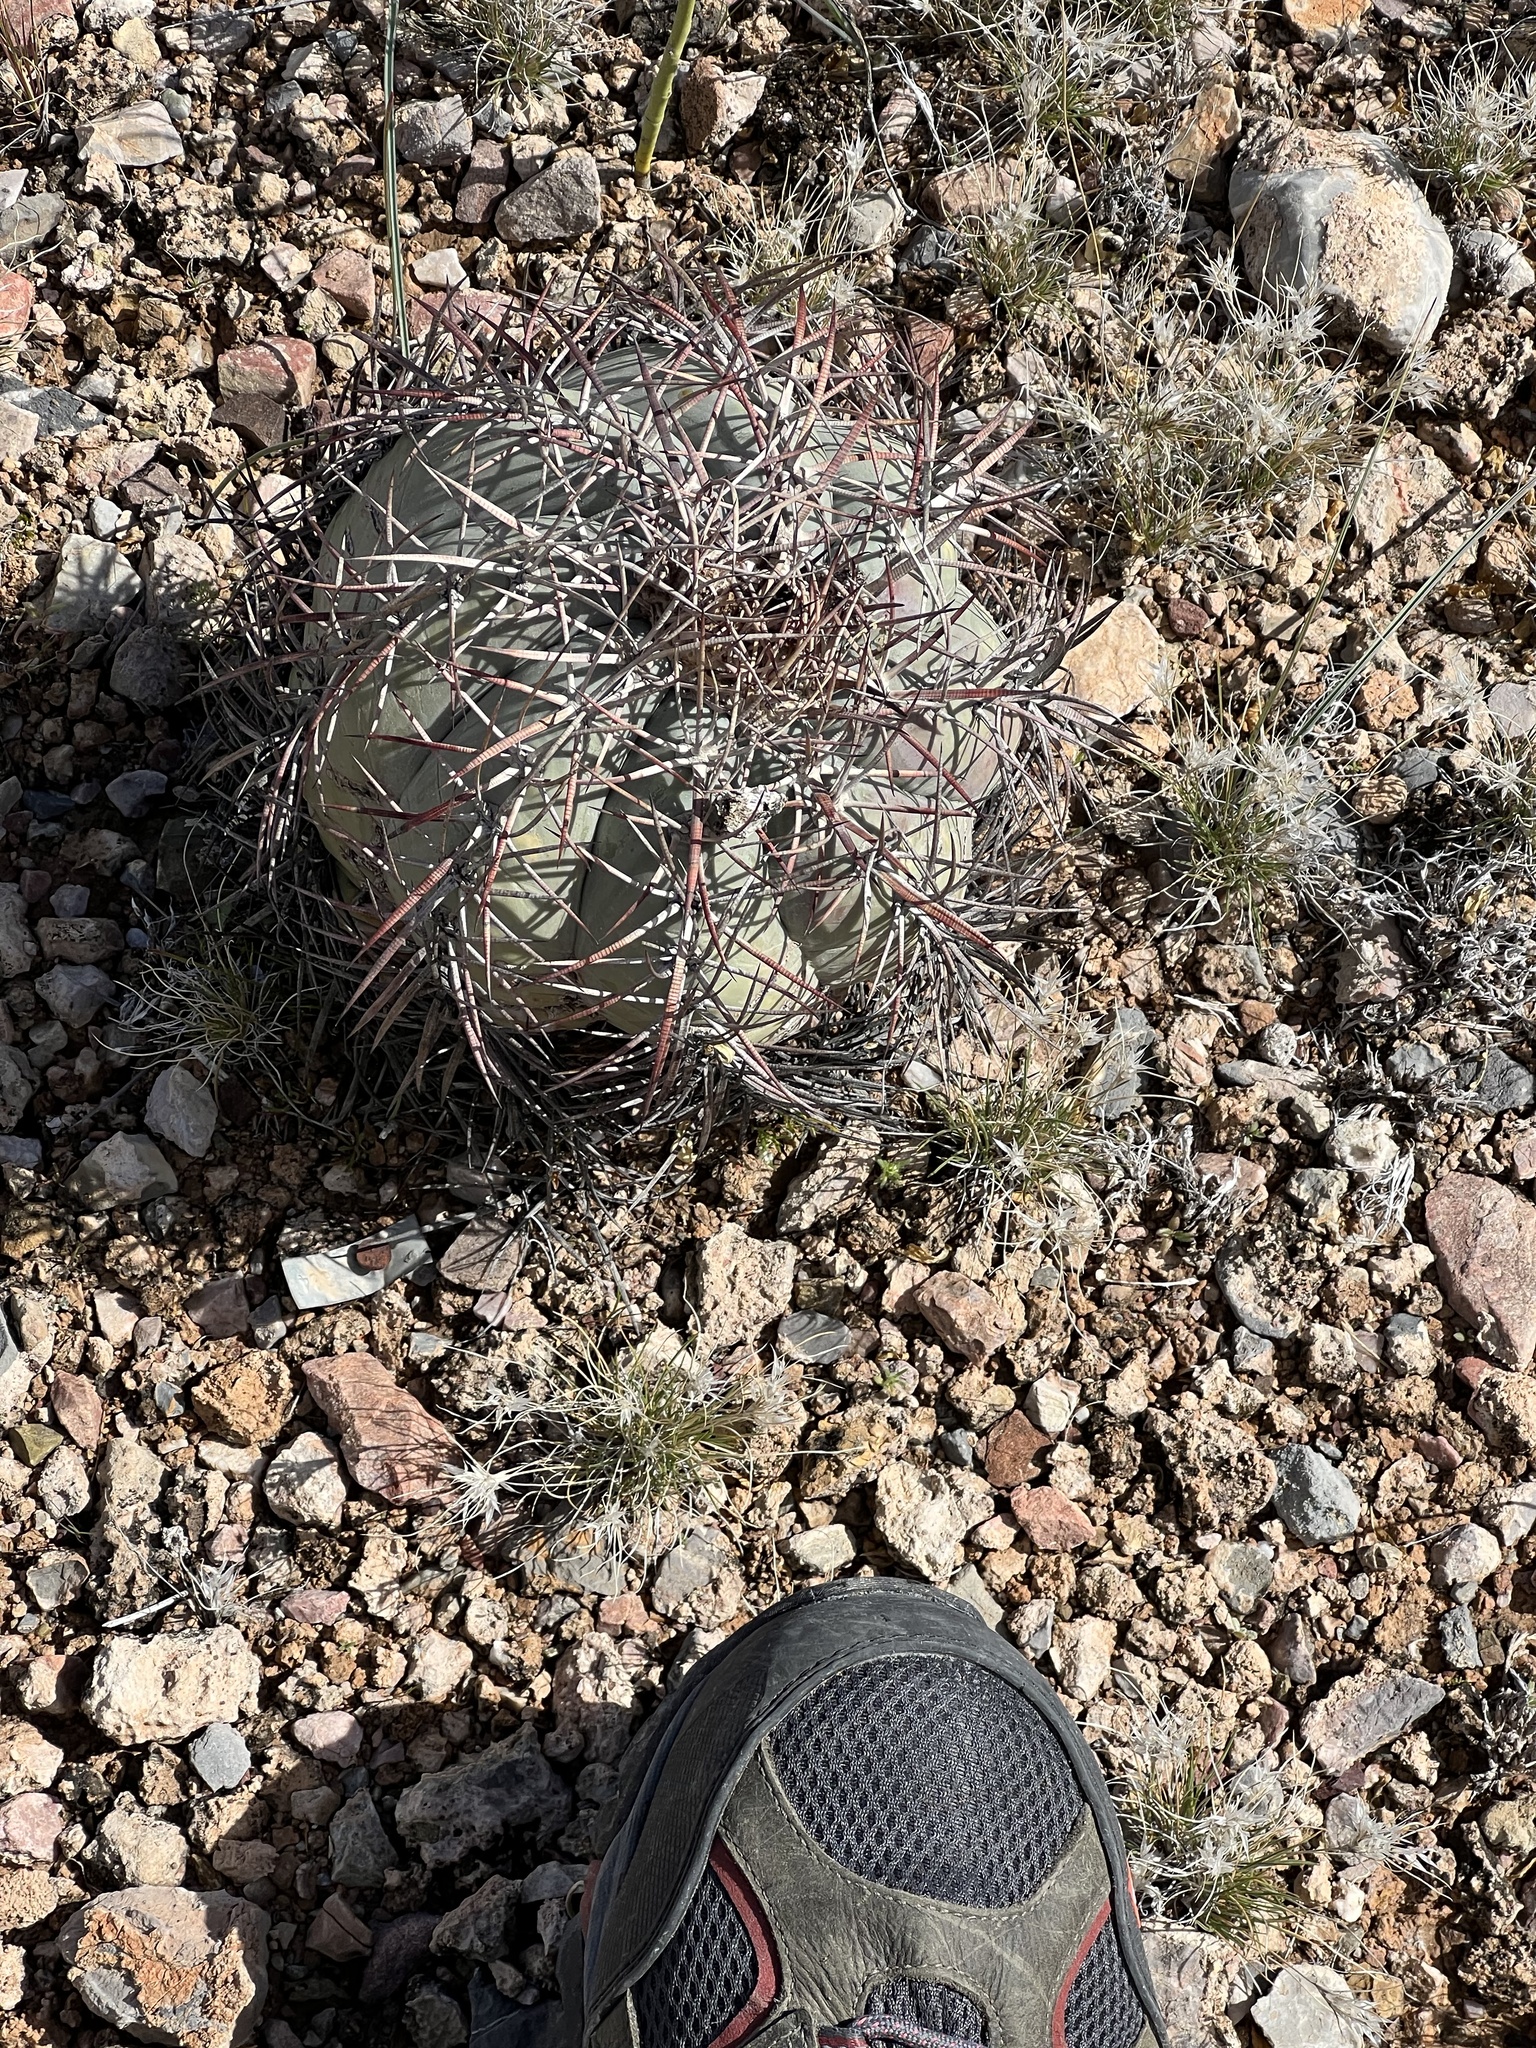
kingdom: Plantae
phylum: Tracheophyta
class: Magnoliopsida
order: Caryophyllales
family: Cactaceae
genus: Echinocactus
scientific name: Echinocactus horizonthalonius
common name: Devilshead
